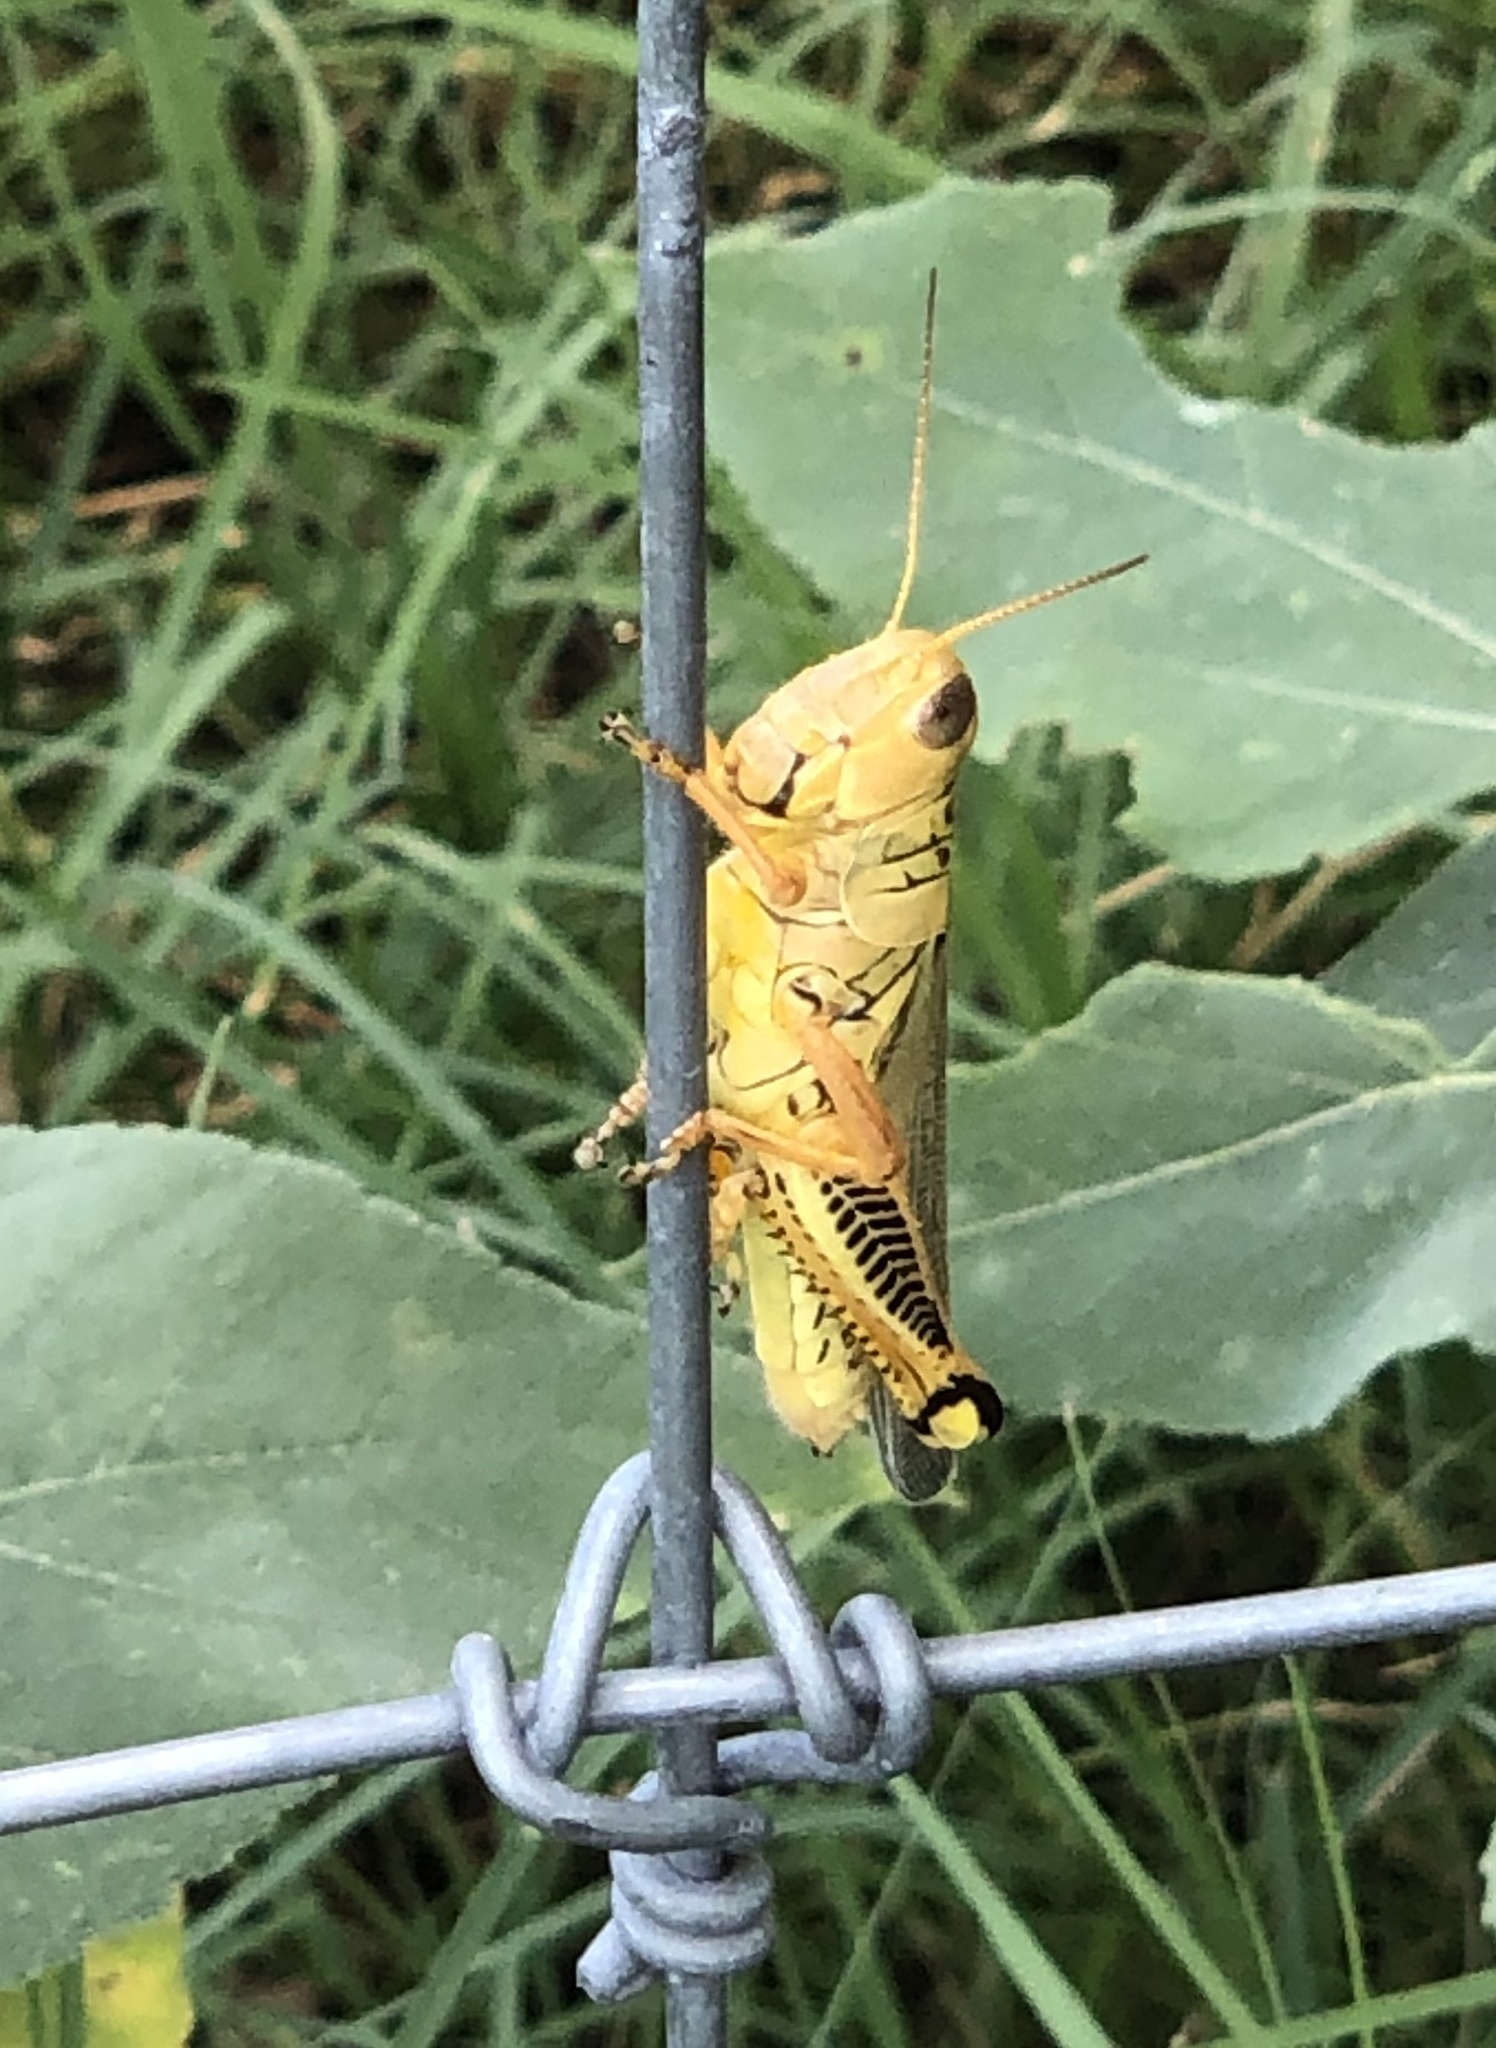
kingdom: Animalia
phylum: Arthropoda
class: Insecta
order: Orthoptera
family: Acrididae
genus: Melanoplus
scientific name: Melanoplus differentialis
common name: Differential grasshopper
